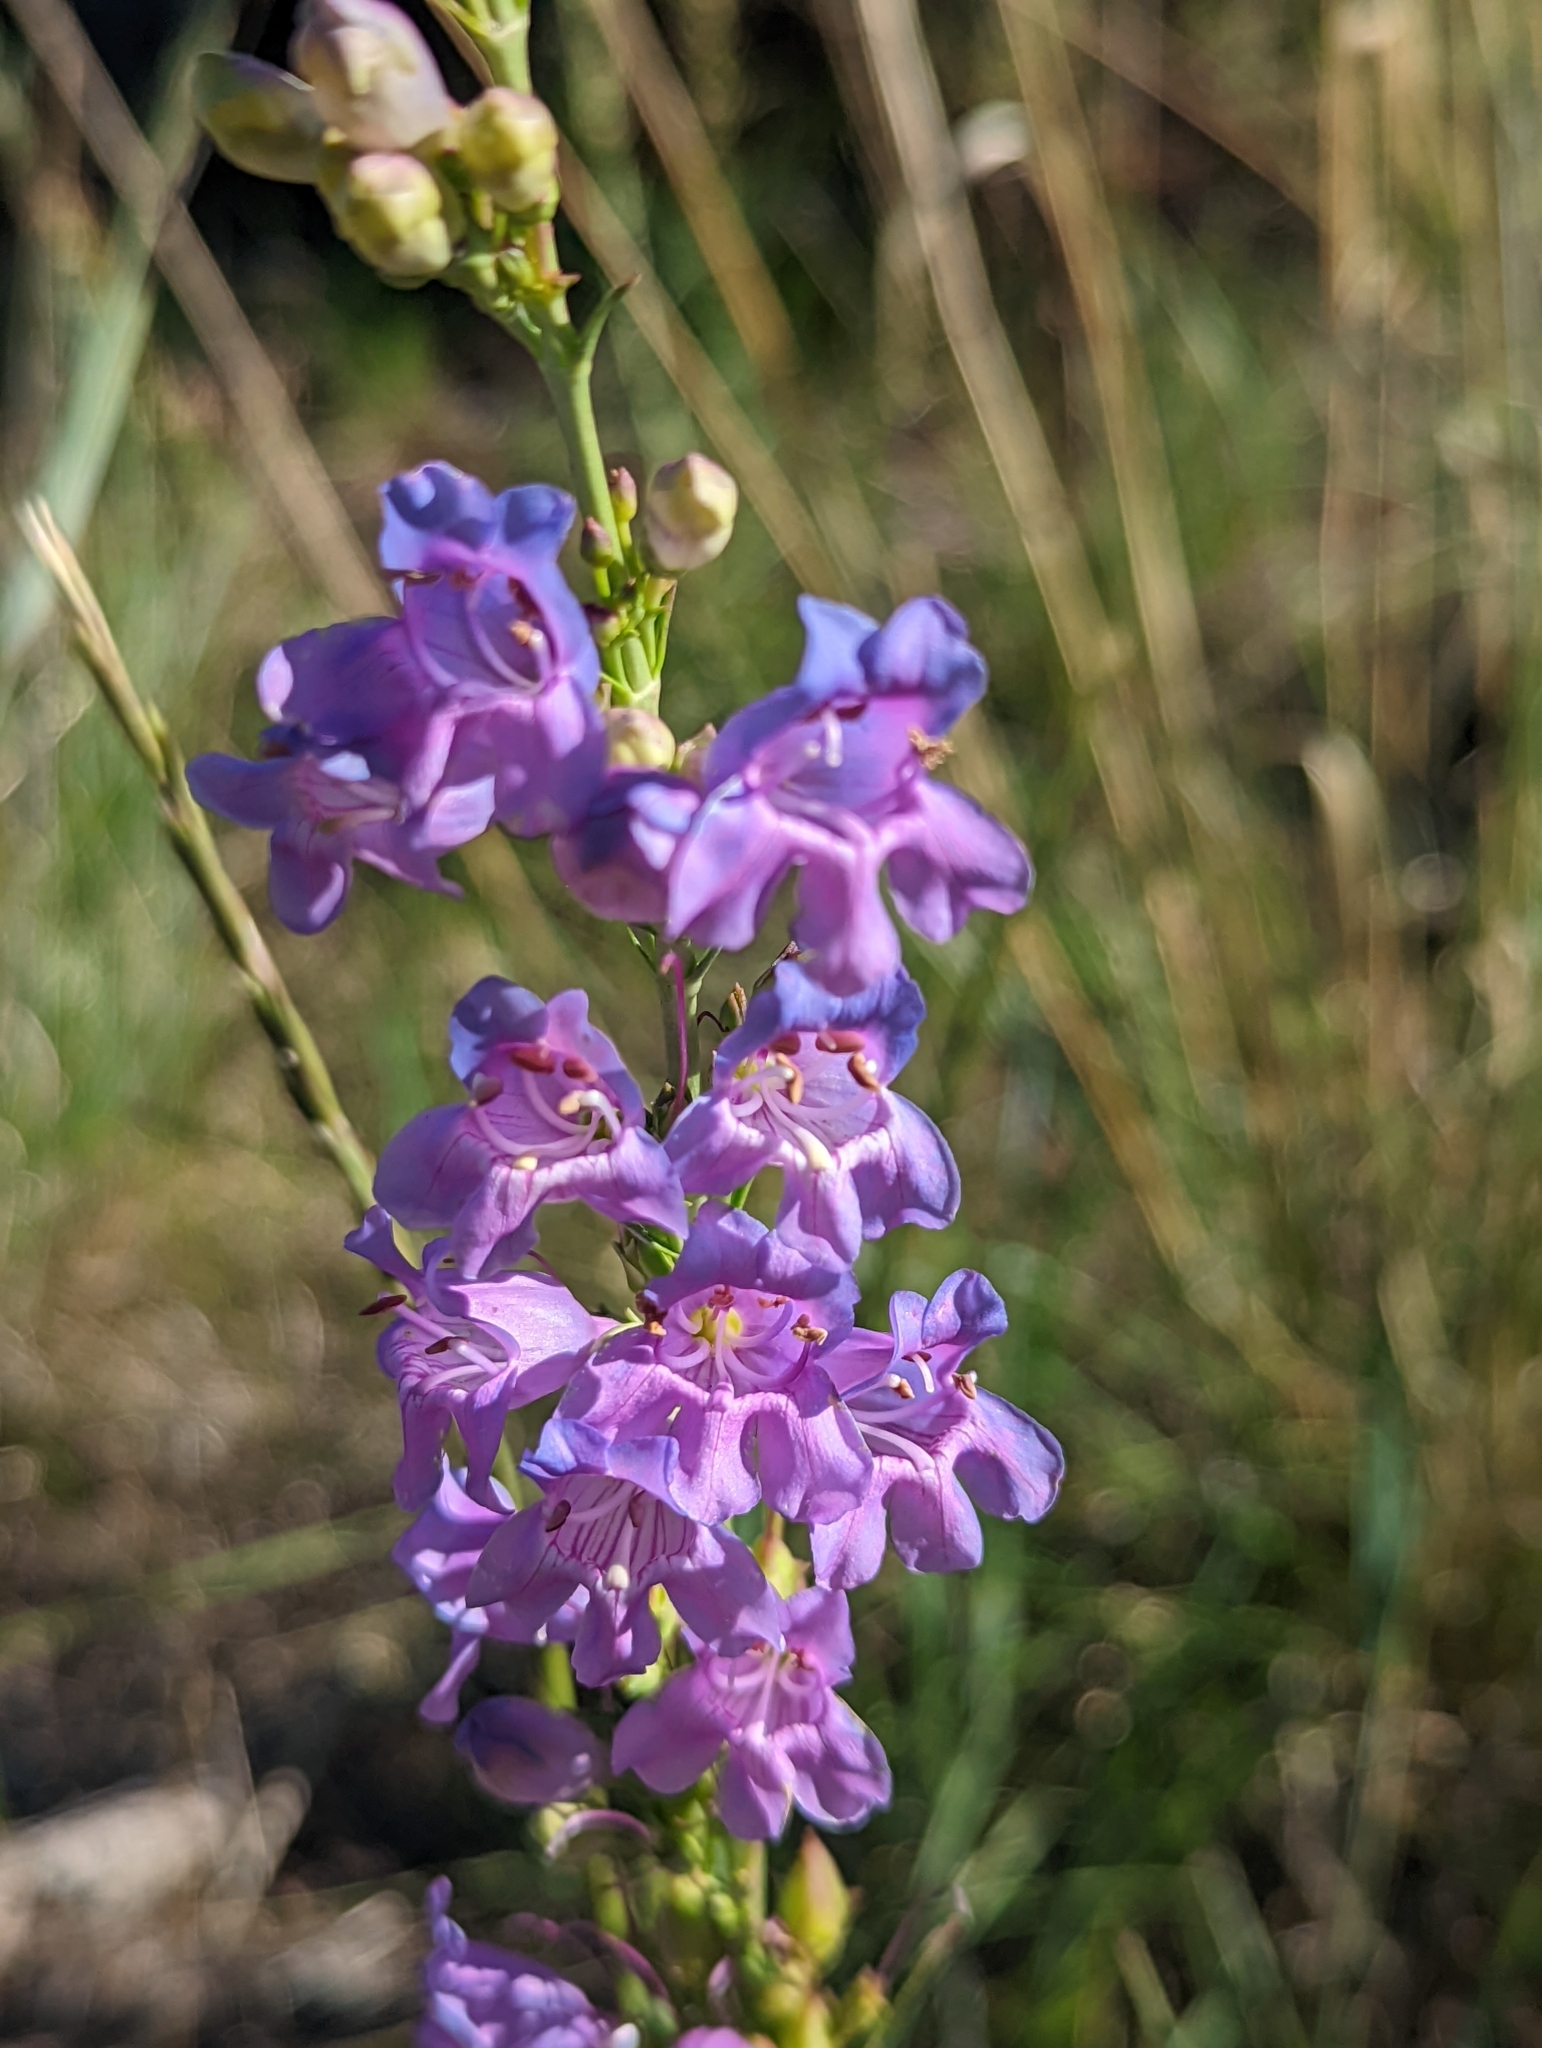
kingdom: Plantae
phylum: Tracheophyta
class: Magnoliopsida
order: Lamiales
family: Plantaginaceae
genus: Penstemon
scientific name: Penstemon virgatus
